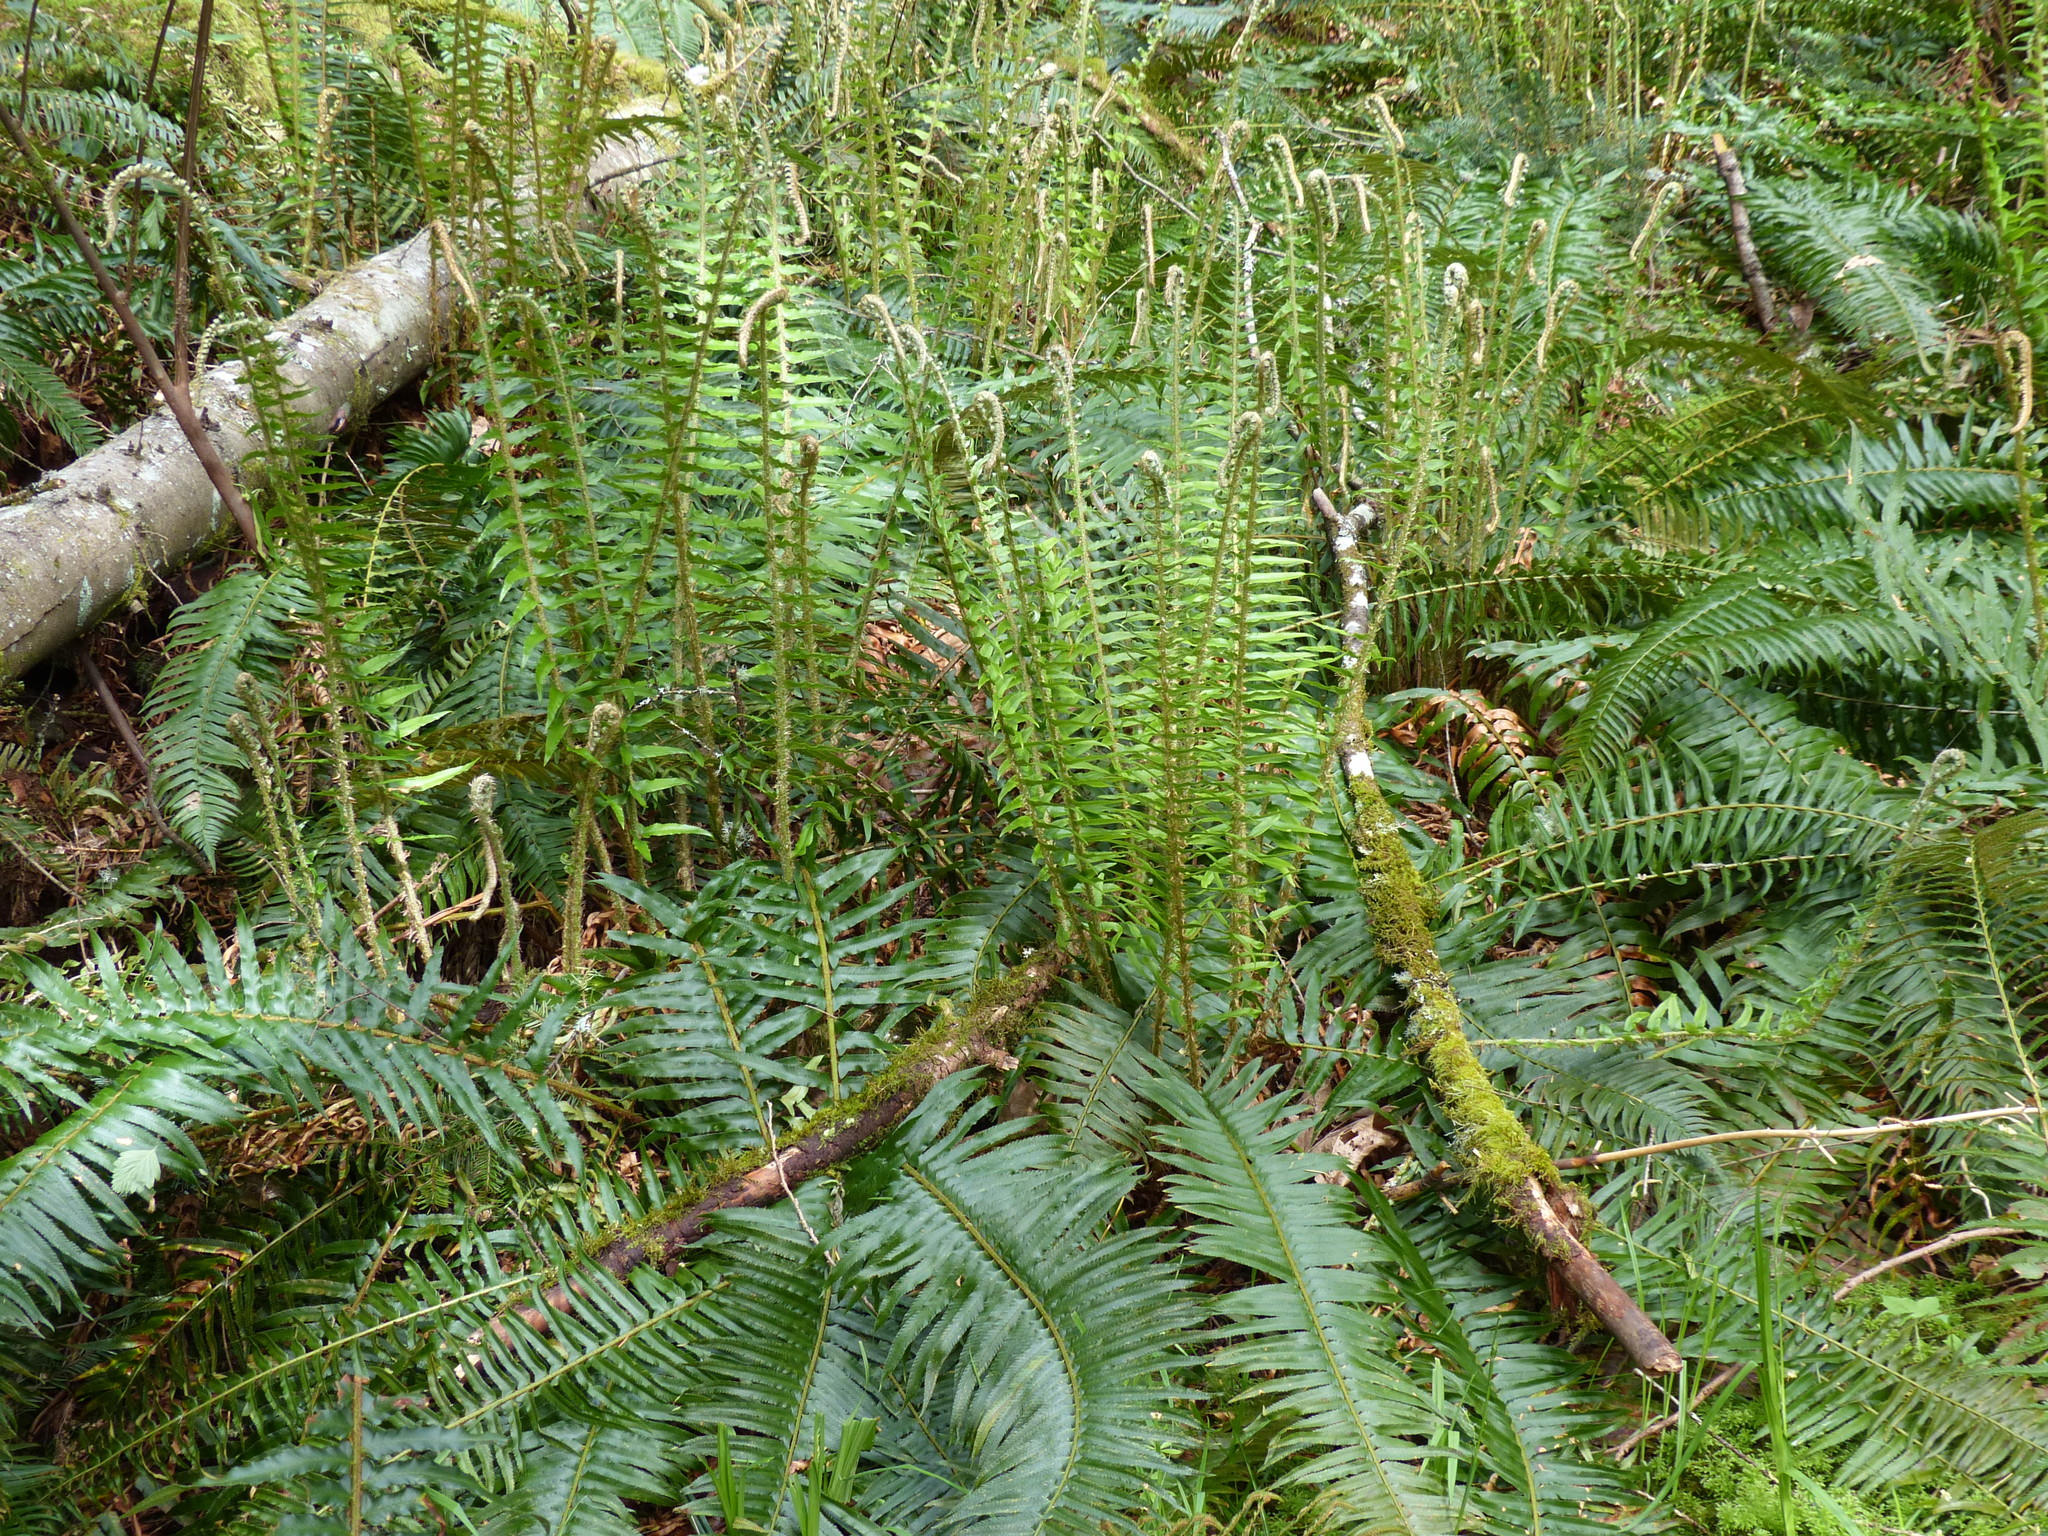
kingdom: Plantae
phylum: Tracheophyta
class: Polypodiopsida
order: Polypodiales
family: Dryopteridaceae
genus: Polystichum
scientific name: Polystichum munitum
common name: Western sword-fern
